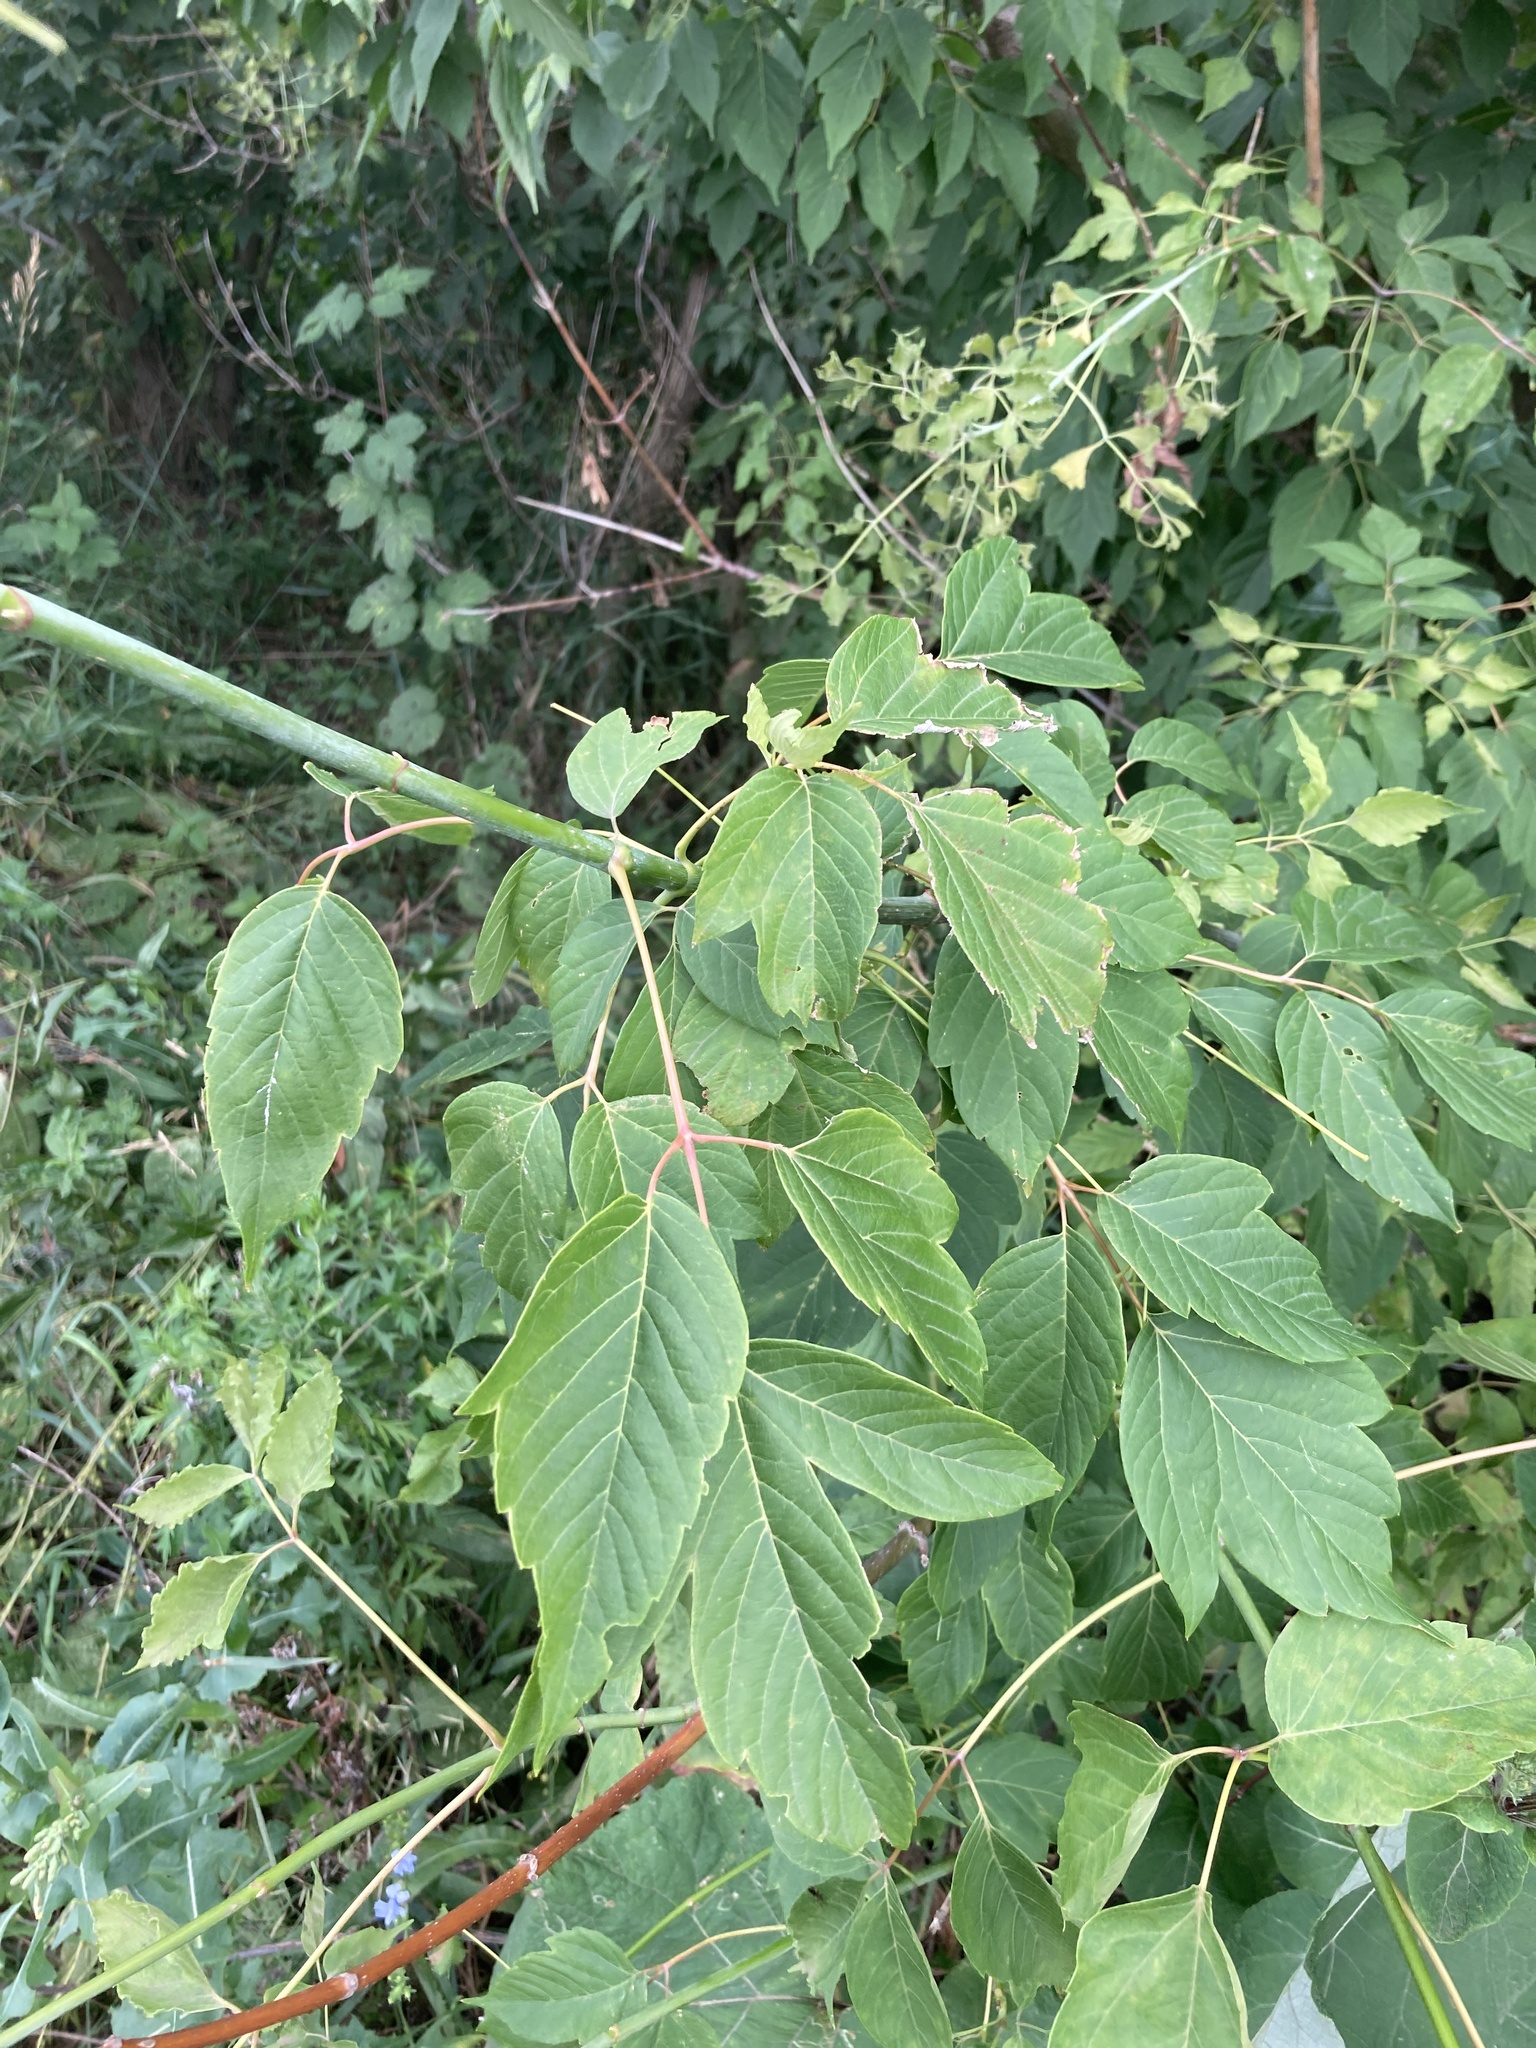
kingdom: Plantae
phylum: Tracheophyta
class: Magnoliopsida
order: Sapindales
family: Sapindaceae
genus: Acer
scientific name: Acer negundo
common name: Ashleaf maple
